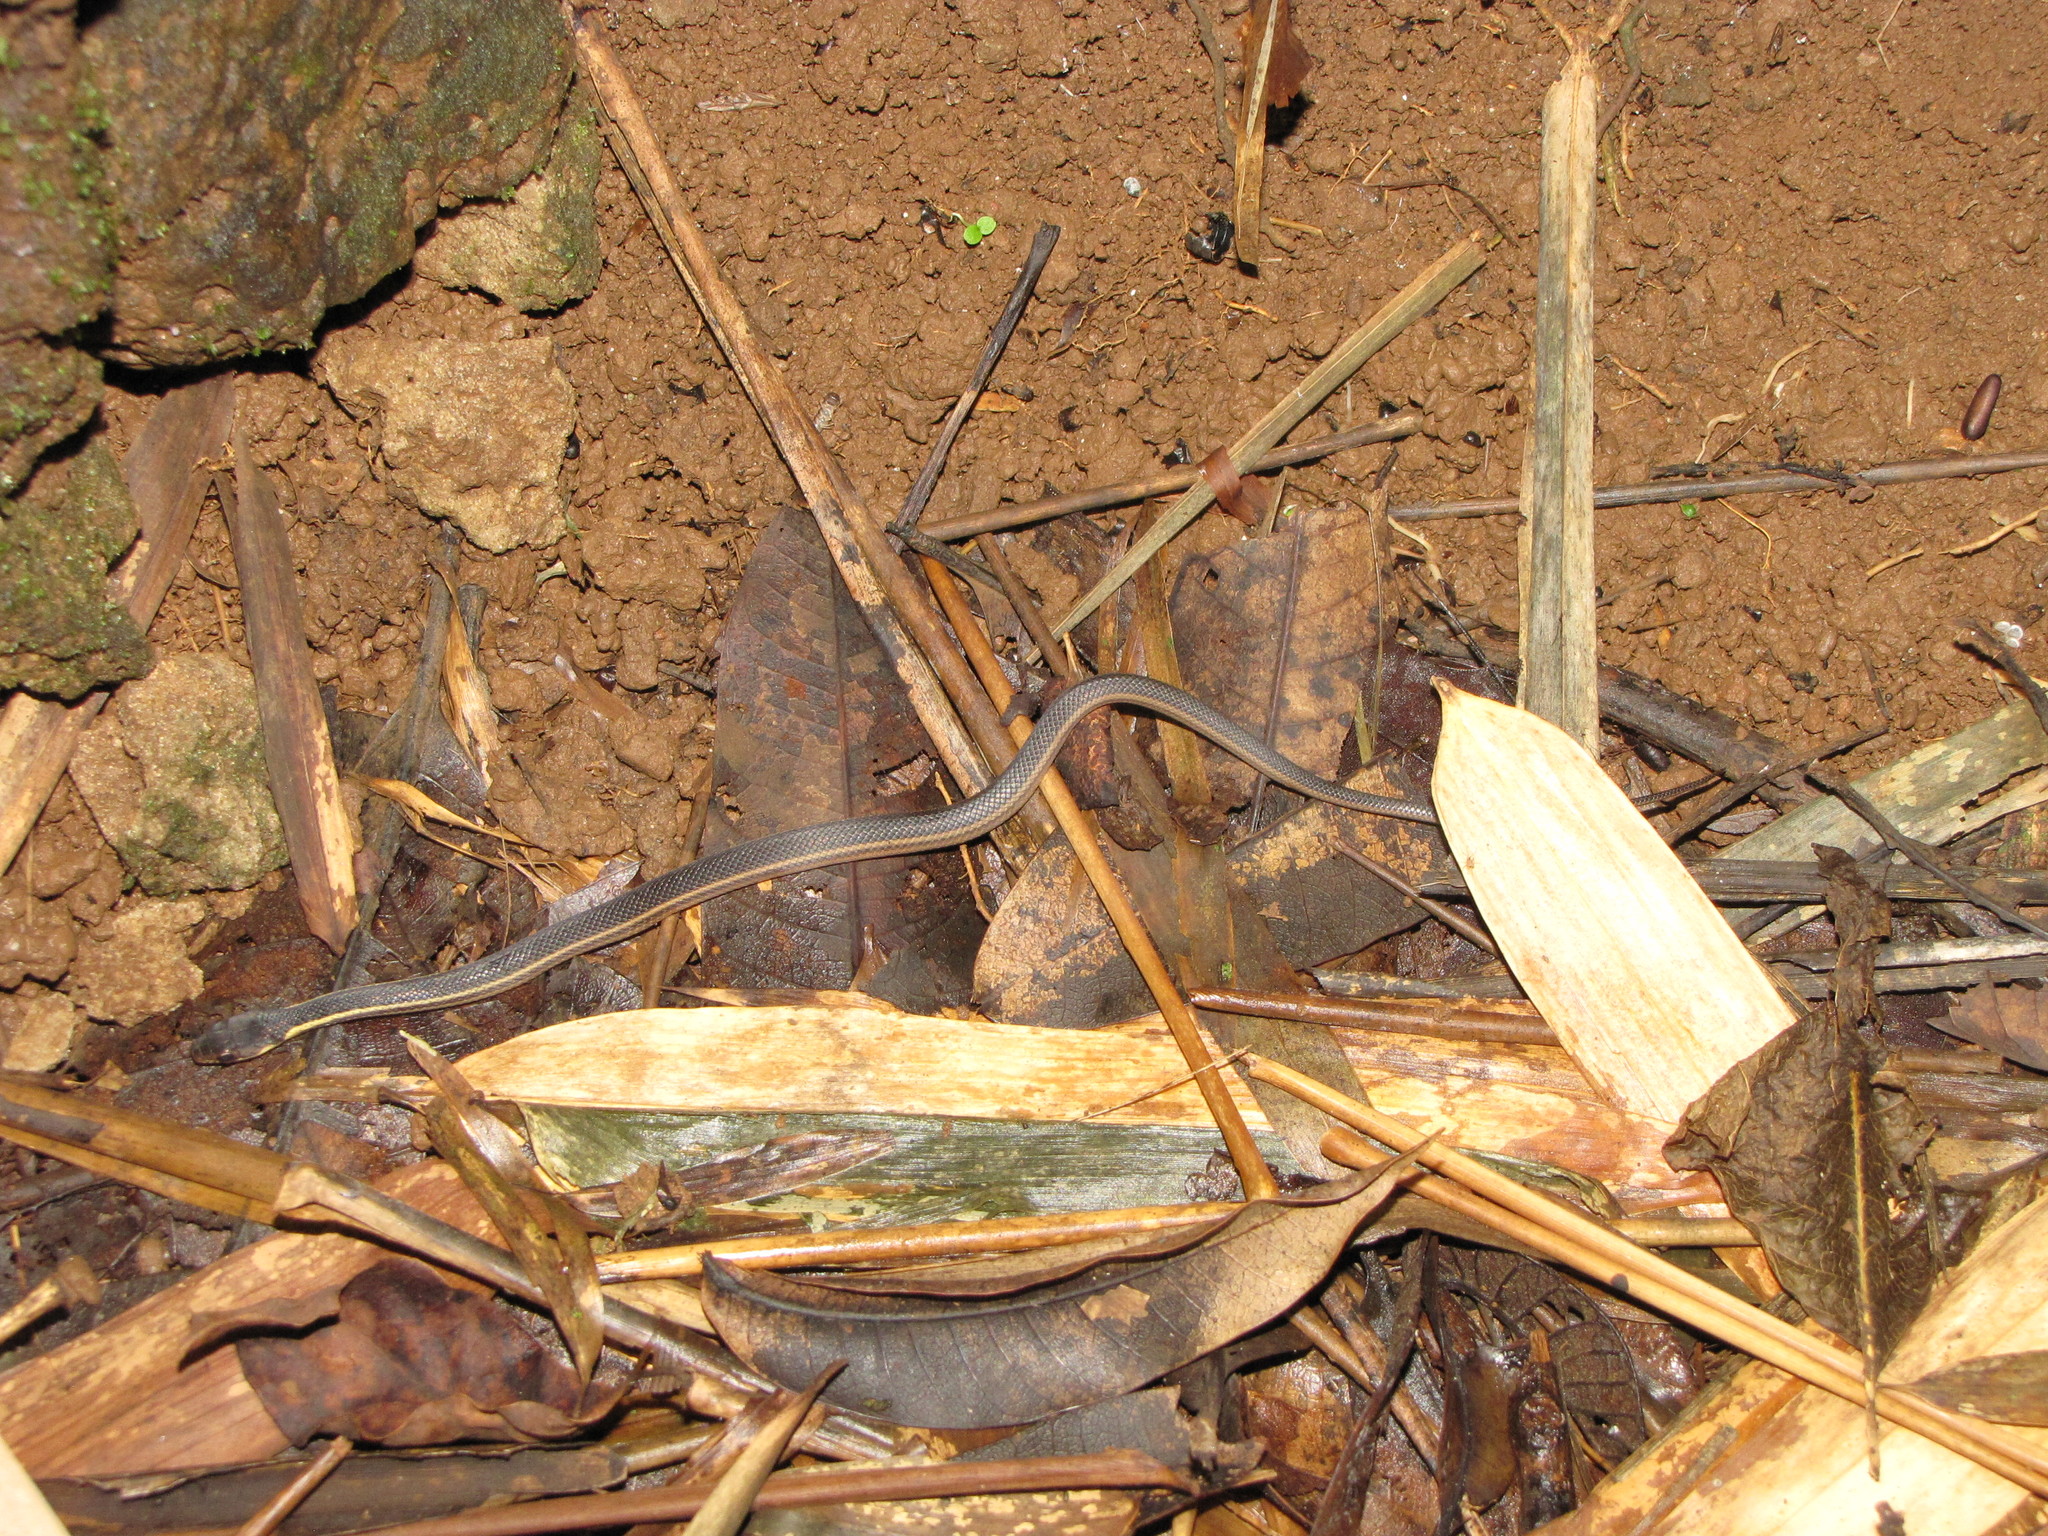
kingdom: Animalia
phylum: Chordata
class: Squamata
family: Pseudoxyrhophiidae
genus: Thamnosophis
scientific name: Thamnosophis stumpffi
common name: Yellow-striped water snake
